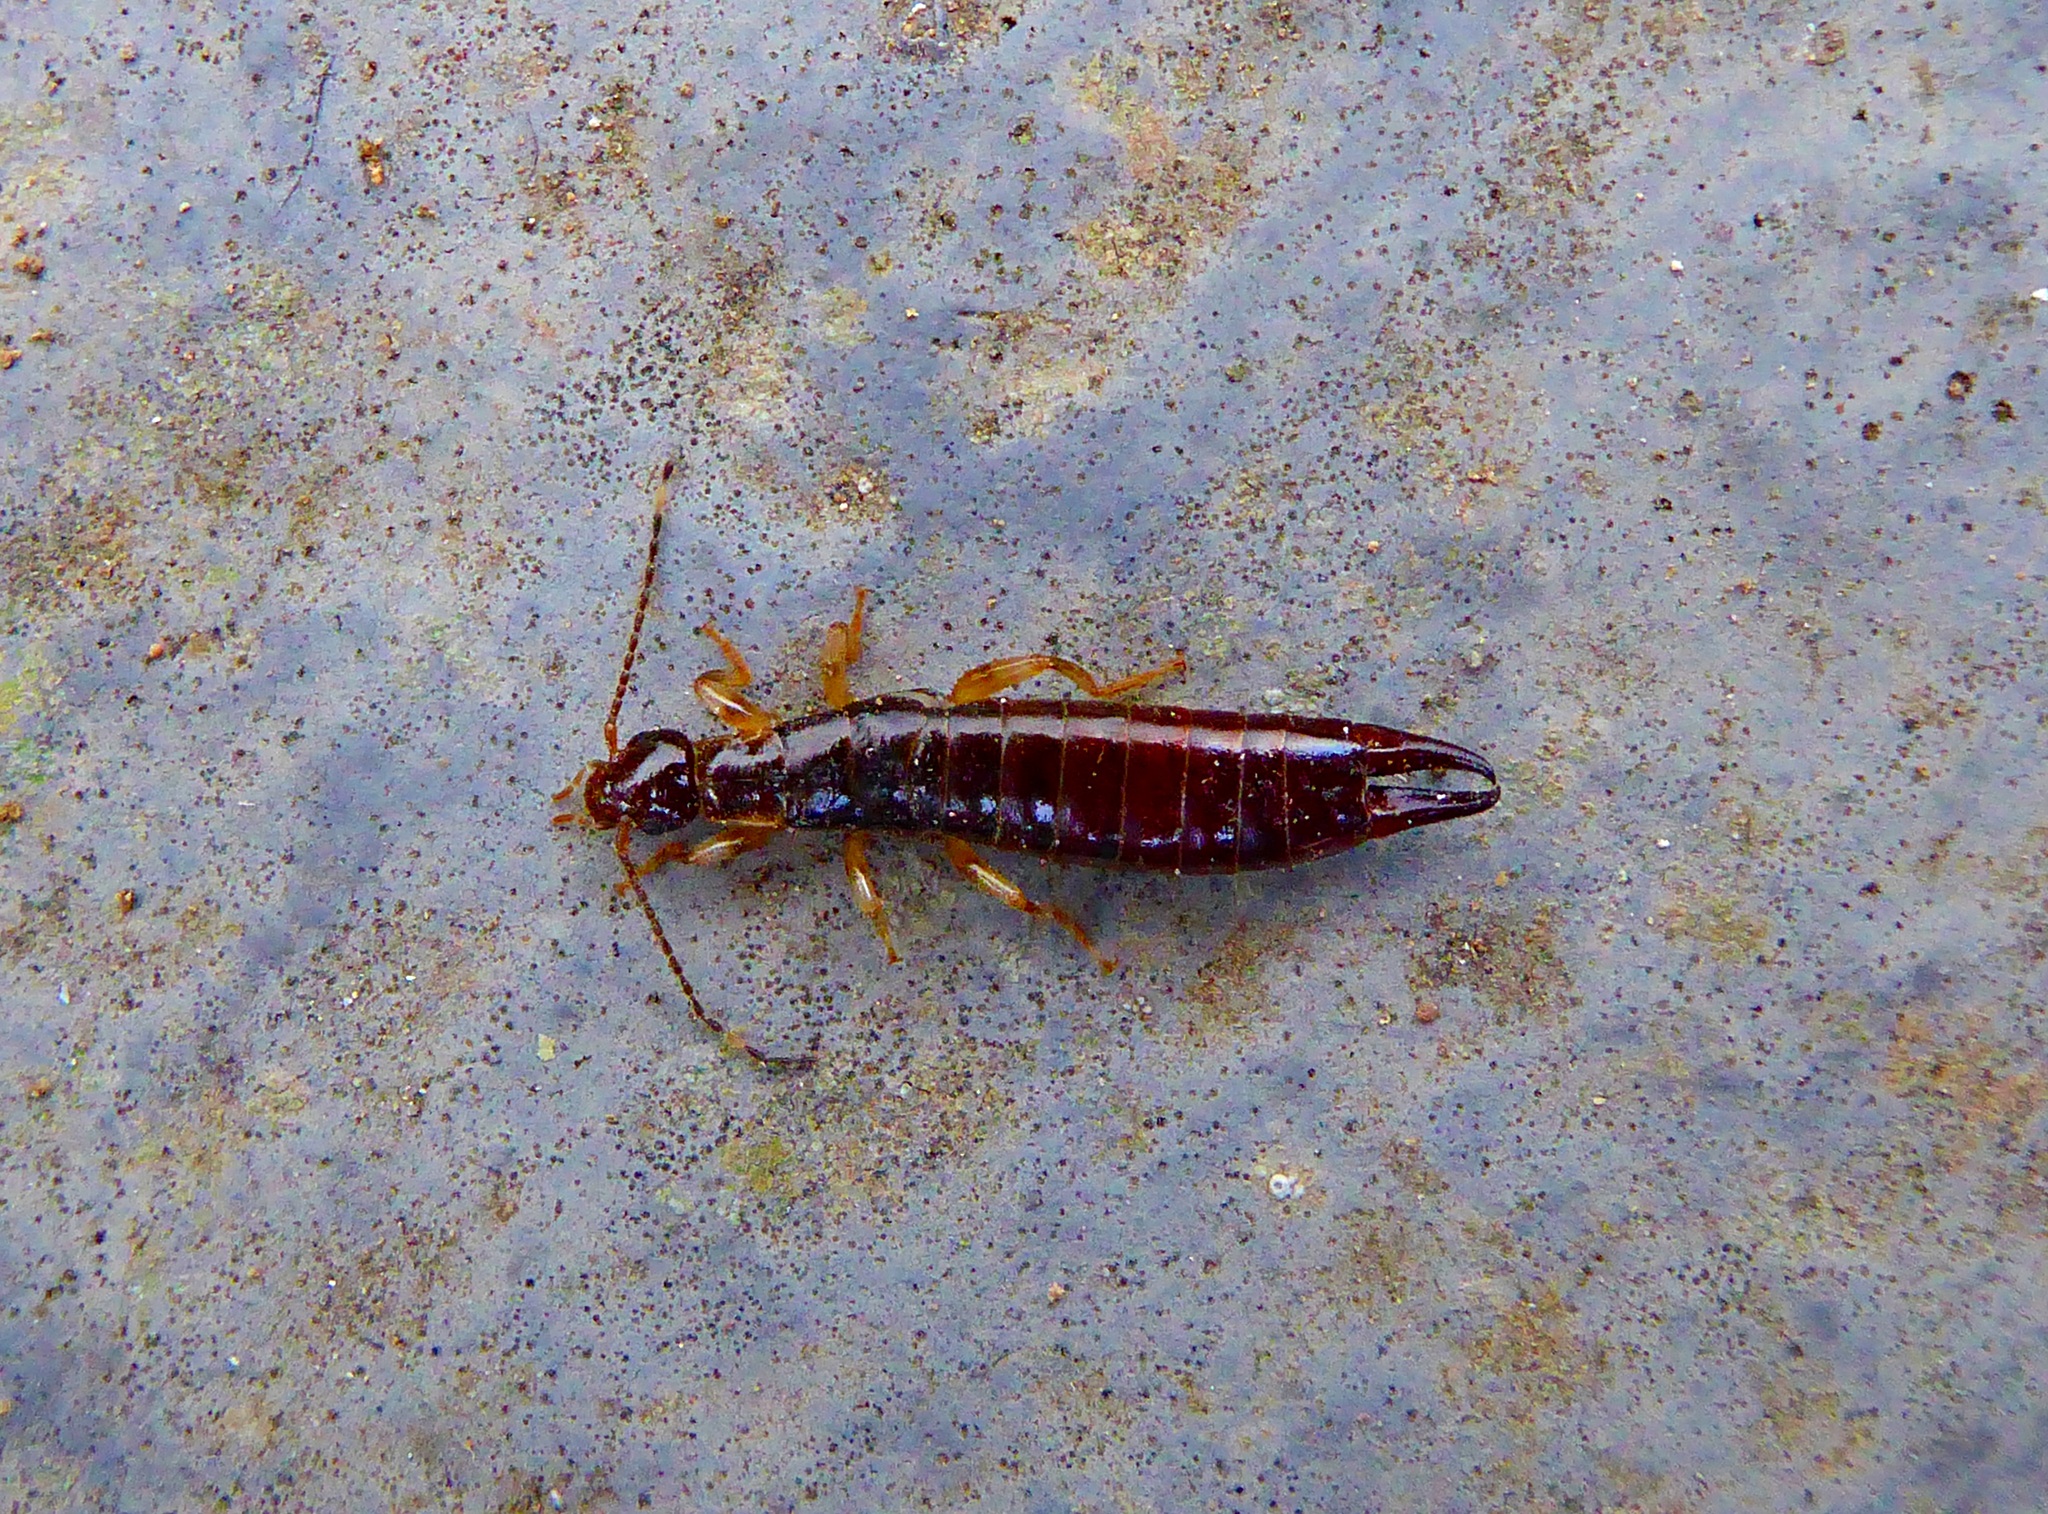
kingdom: Animalia
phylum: Arthropoda
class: Insecta
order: Dermaptera
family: Anisolabididae
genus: Euborellia
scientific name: Euborellia annulipes
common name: Ringlegged earwig
